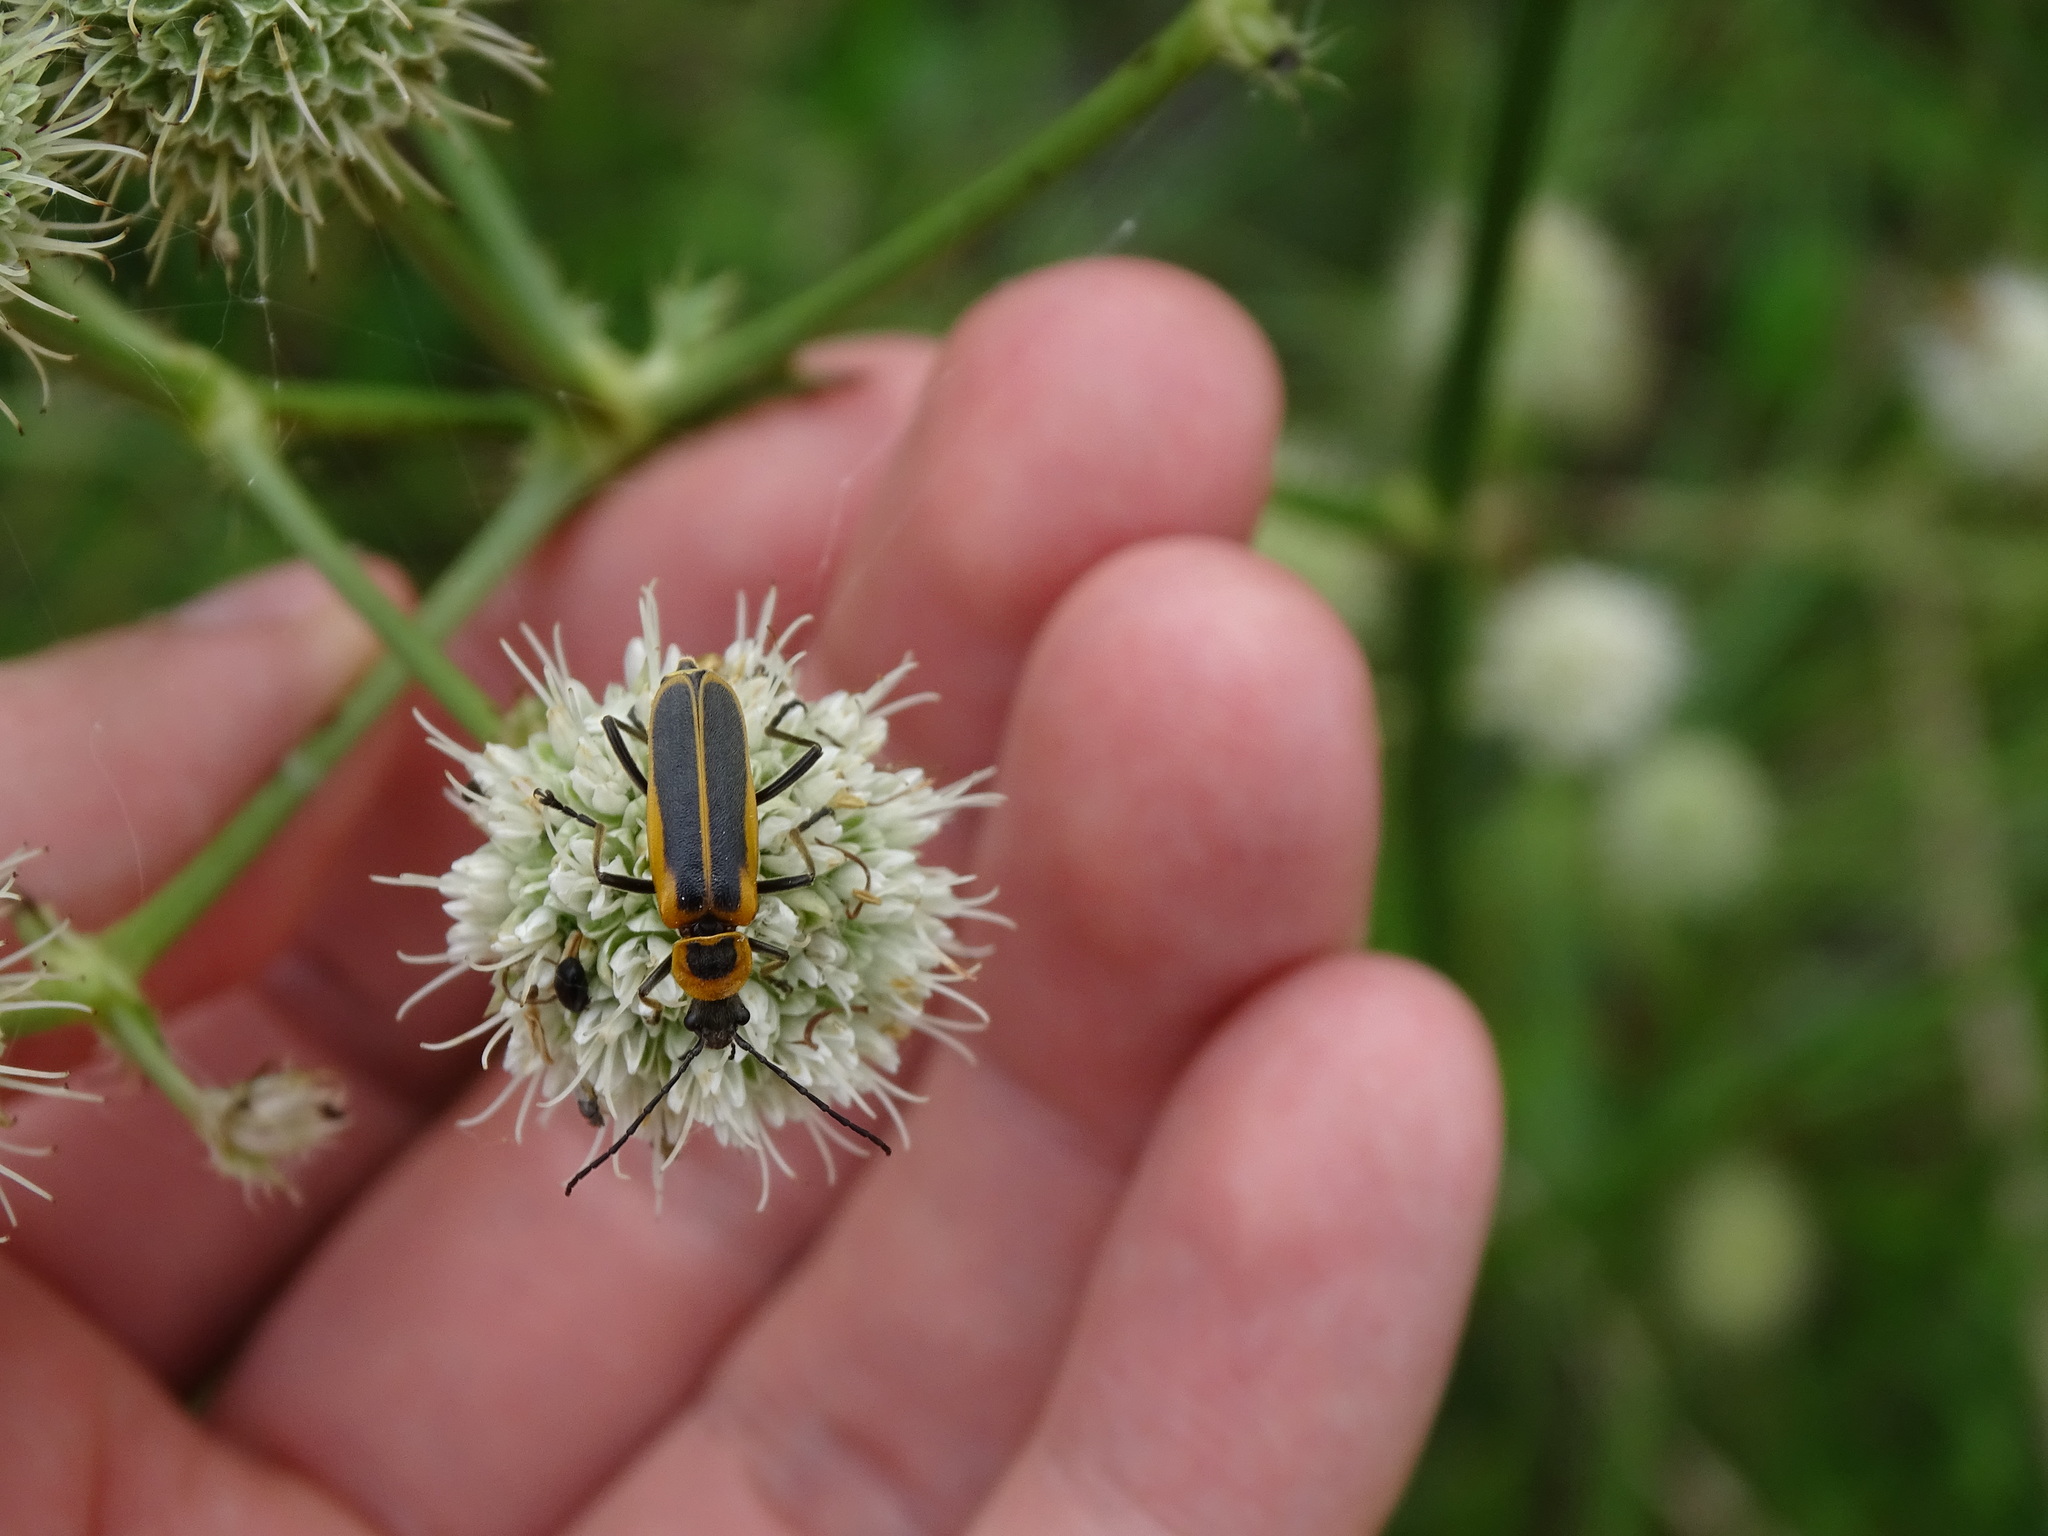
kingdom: Animalia
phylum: Arthropoda
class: Insecta
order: Coleoptera
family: Cantharidae
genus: Chauliognathus
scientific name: Chauliognathus pensylvanicus
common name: Goldenrod soldier beetle
